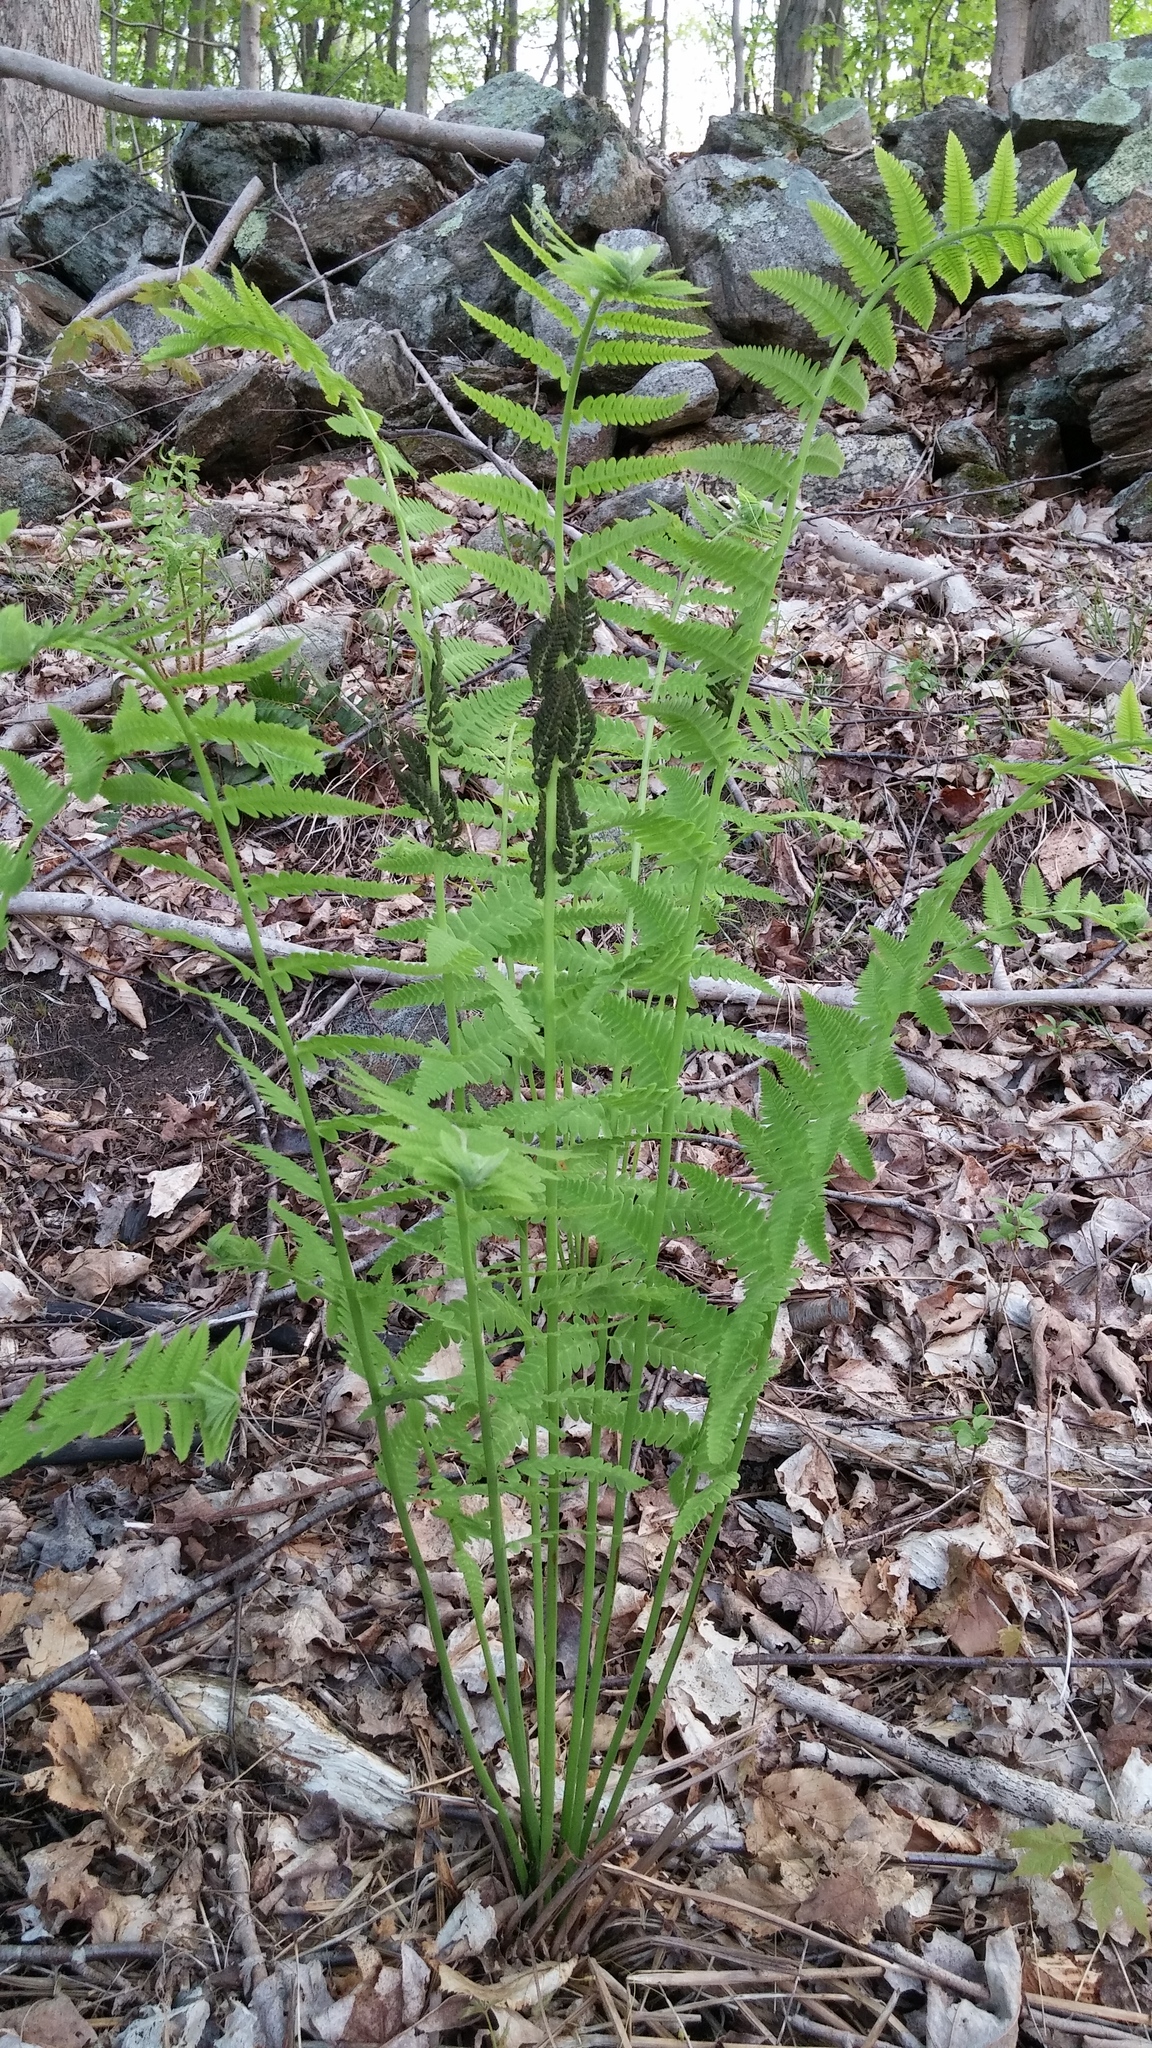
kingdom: Plantae
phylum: Tracheophyta
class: Polypodiopsida
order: Osmundales
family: Osmundaceae
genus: Claytosmunda
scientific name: Claytosmunda claytoniana
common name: Clayton's fern
